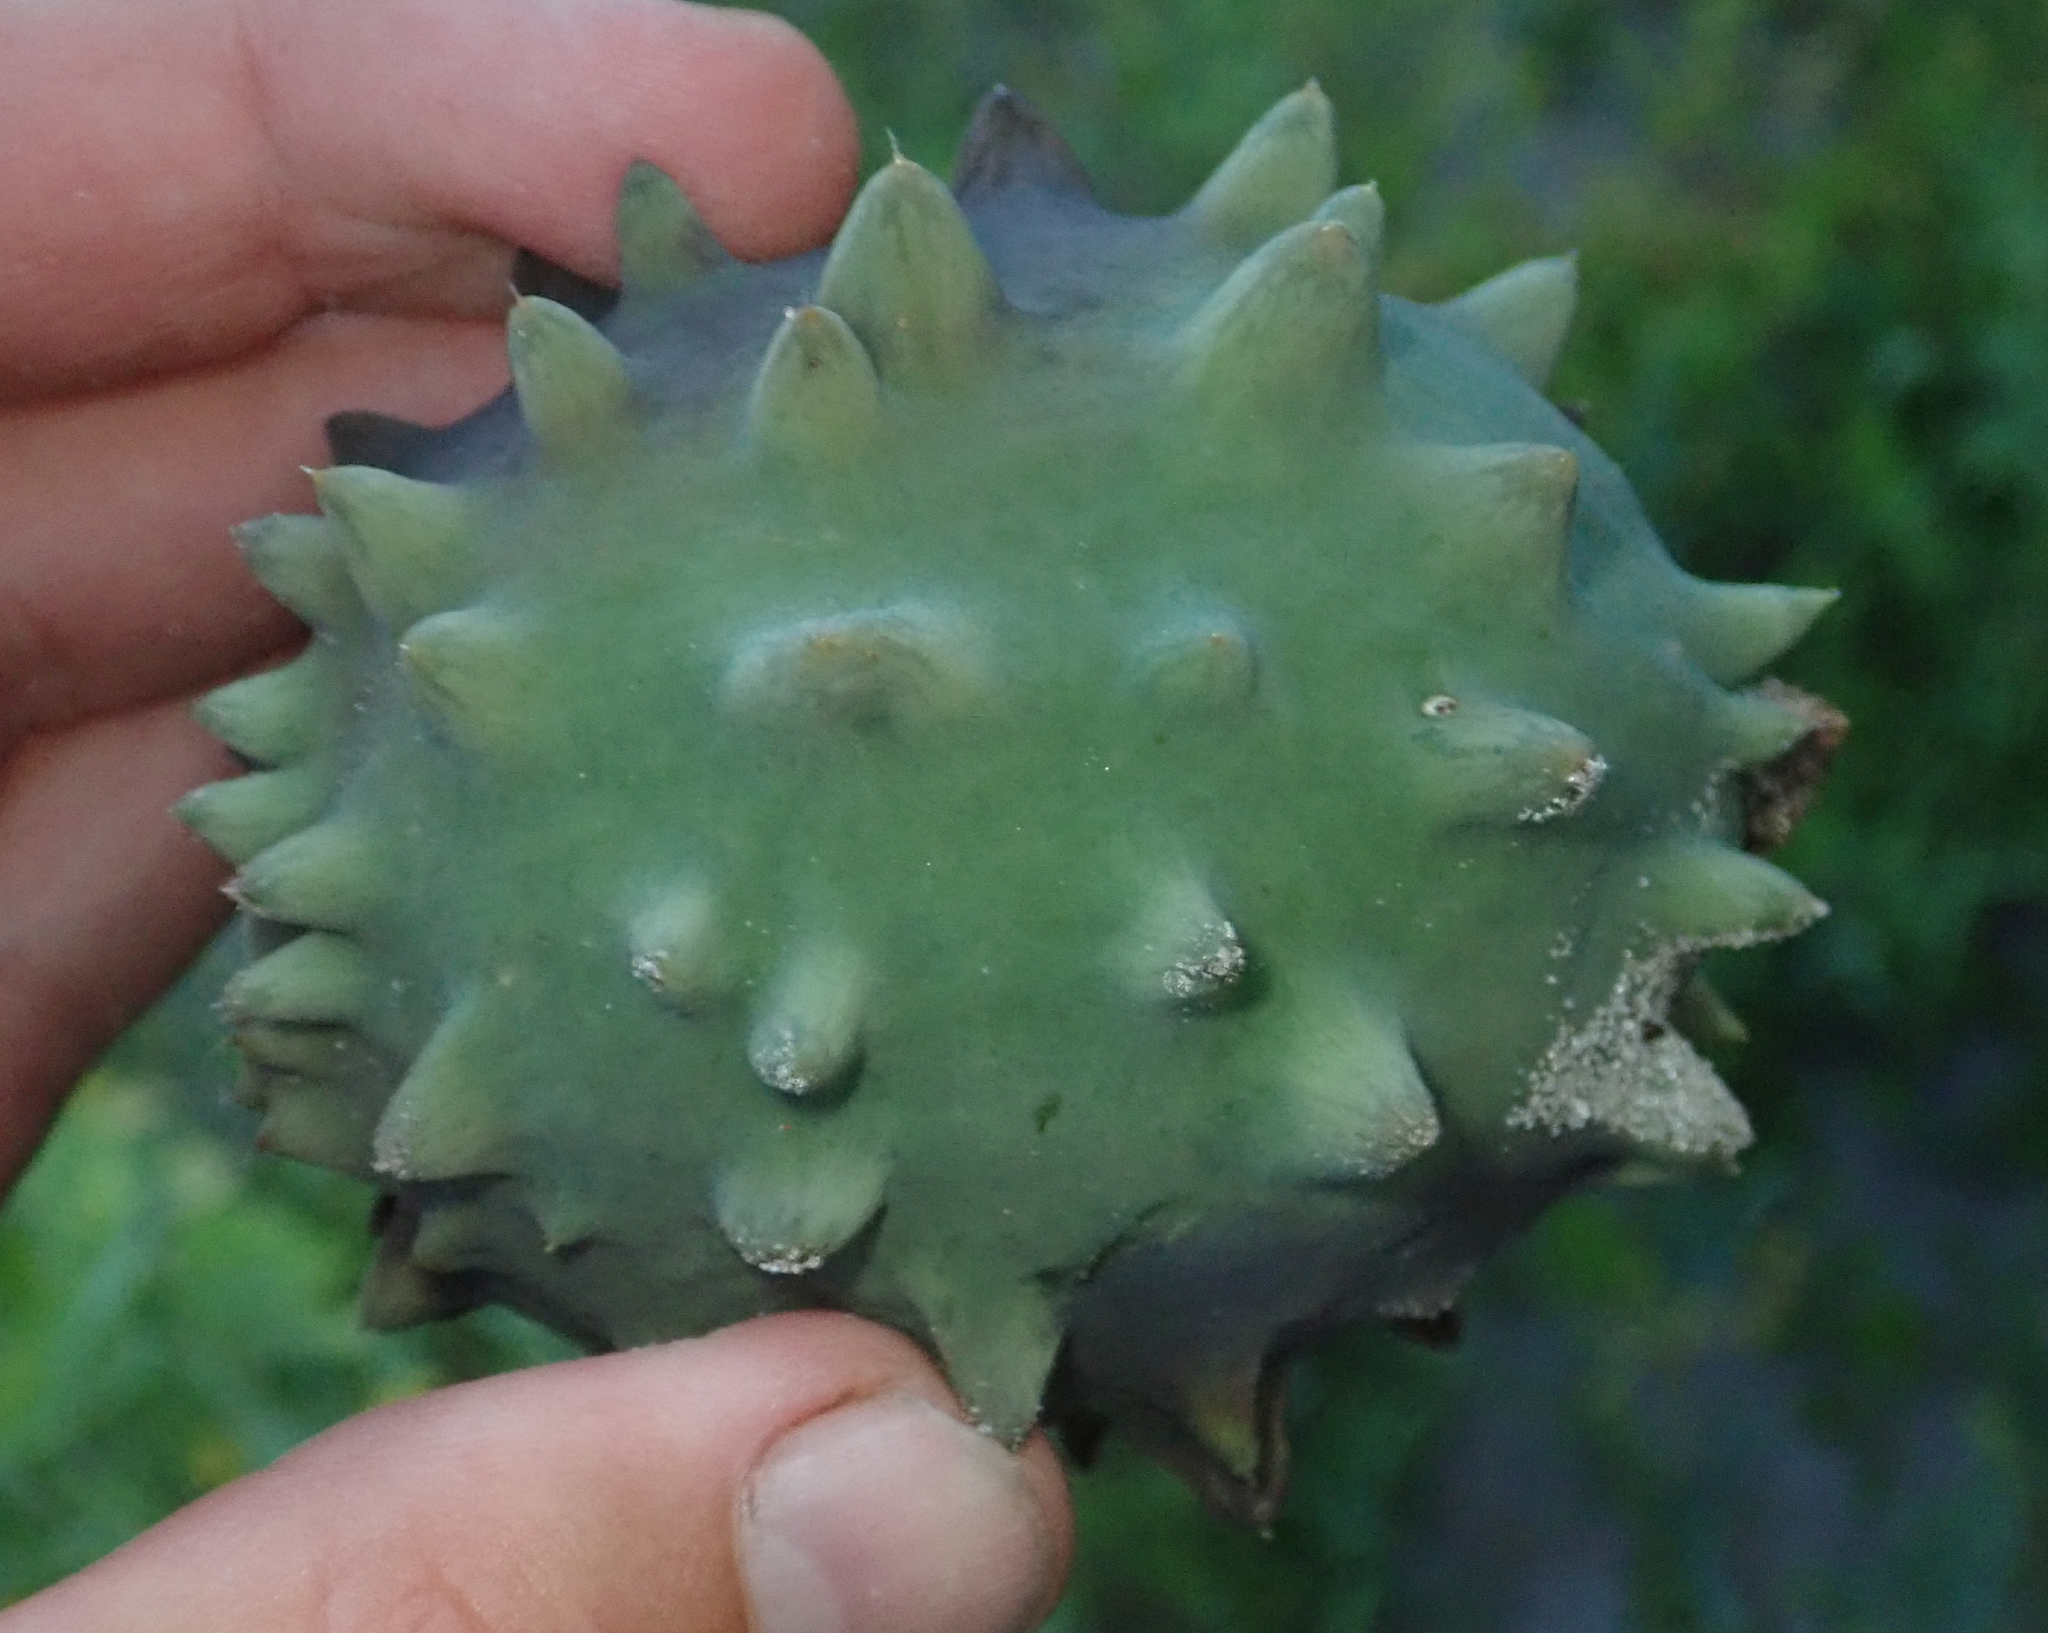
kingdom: Plantae
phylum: Tracheophyta
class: Magnoliopsida
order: Cucurbitales
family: Cucurbitaceae
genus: Citrullus
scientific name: Citrullus naudinianus
